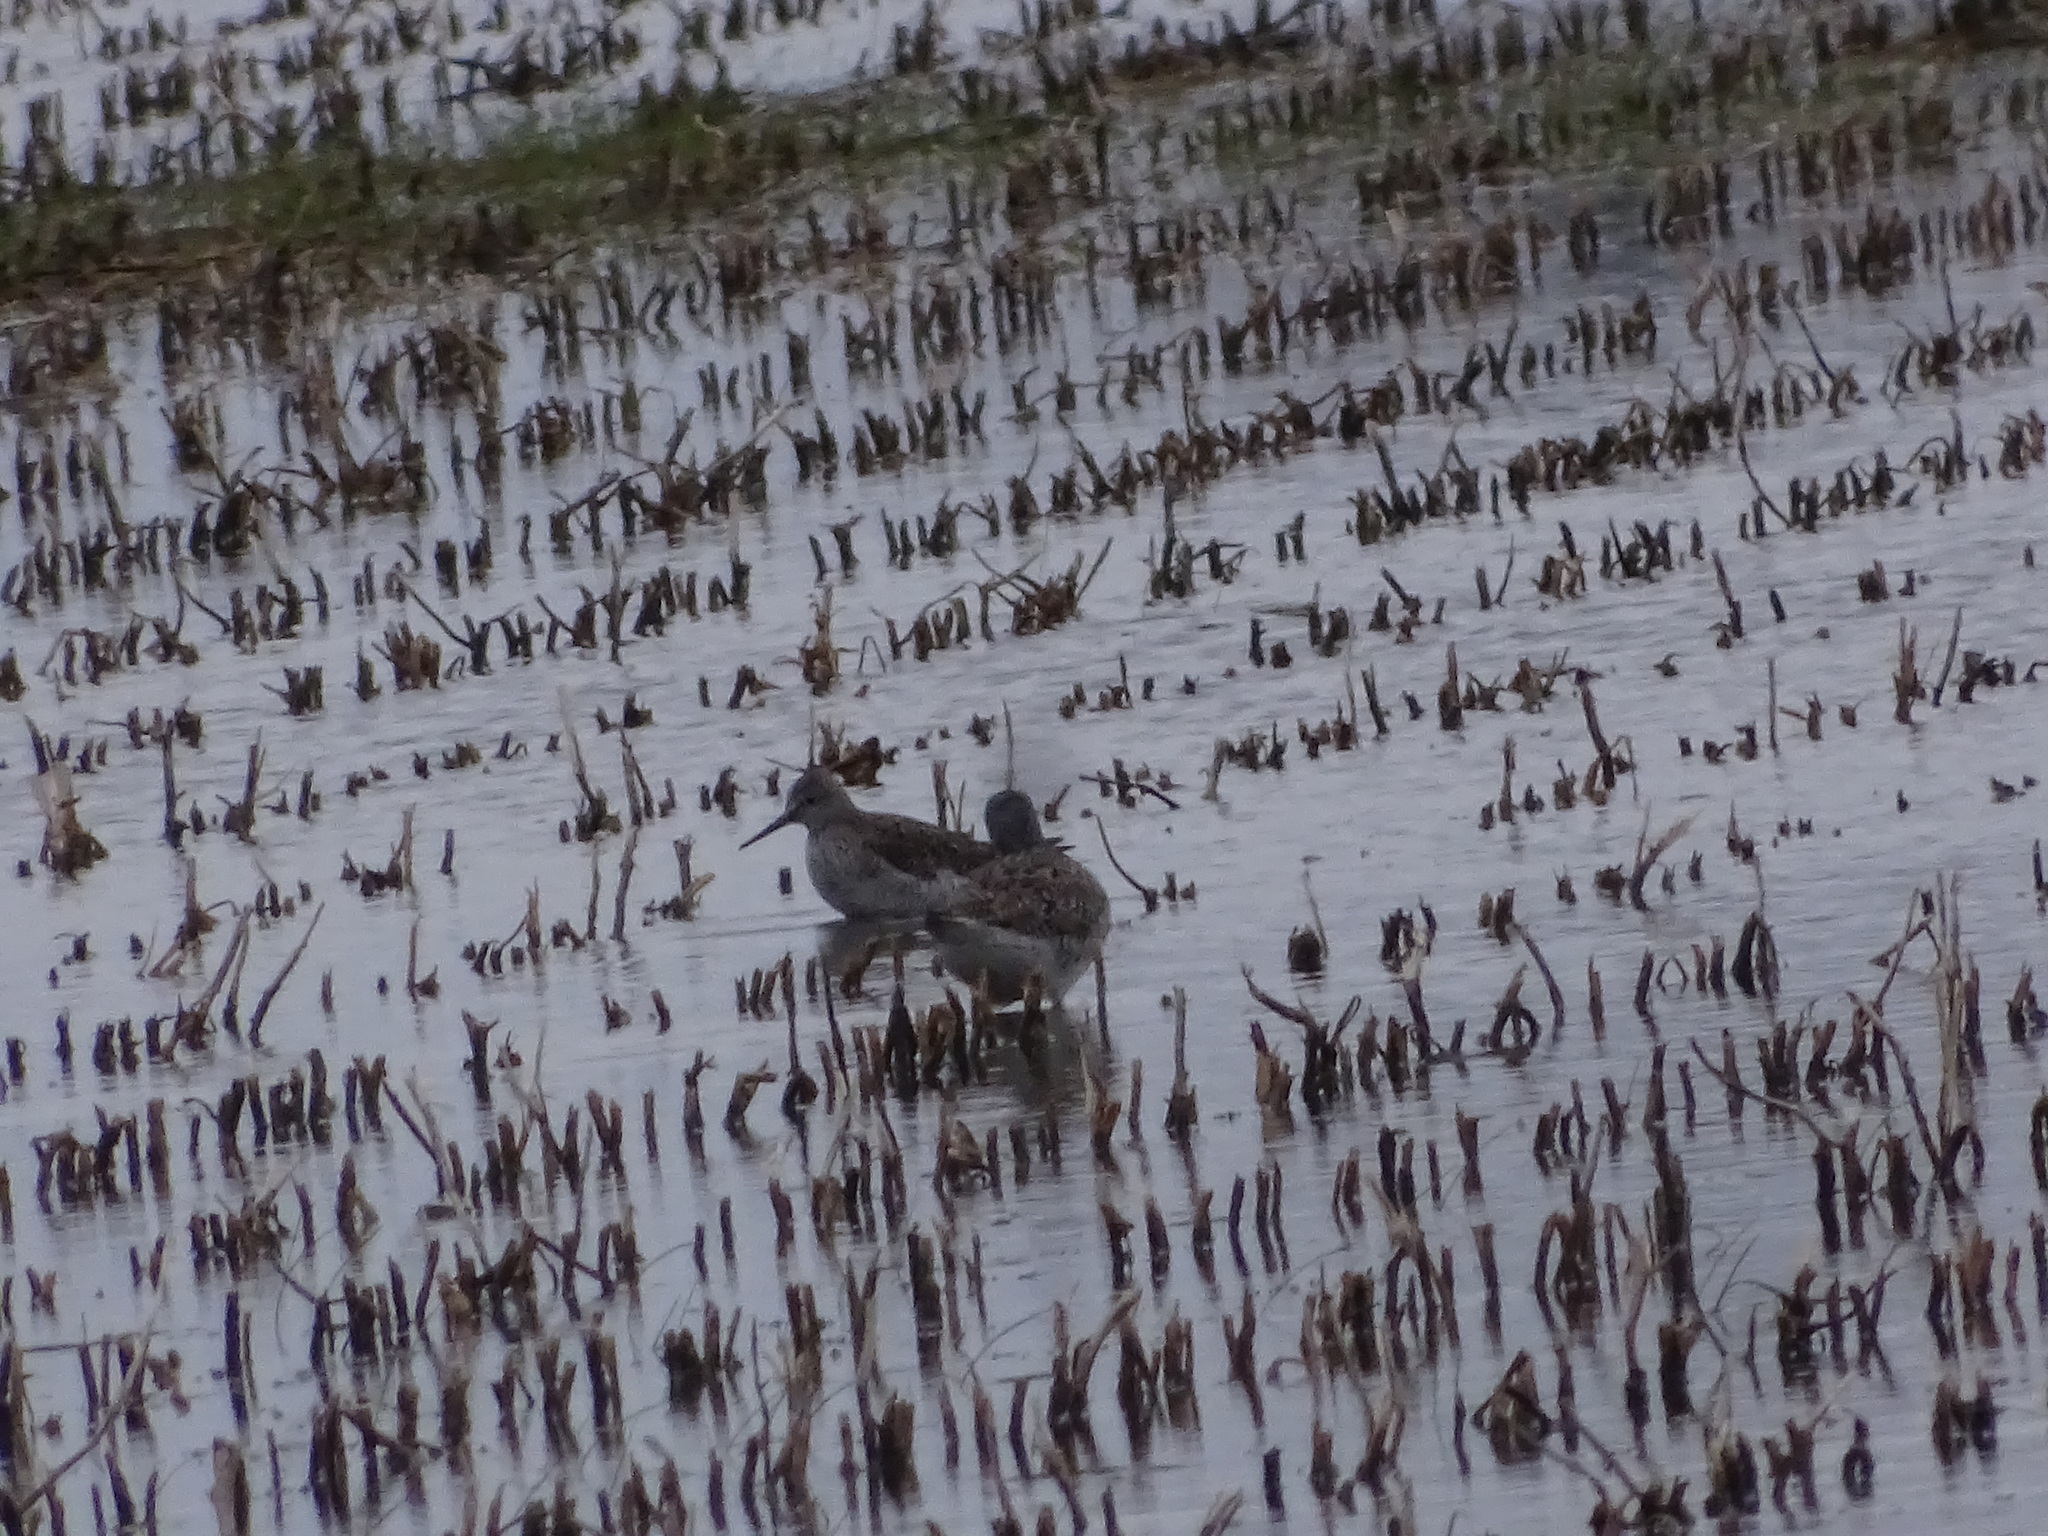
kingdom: Animalia
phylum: Chordata
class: Aves
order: Charadriiformes
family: Scolopacidae
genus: Tringa
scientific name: Tringa flavipes
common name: Lesser yellowlegs
